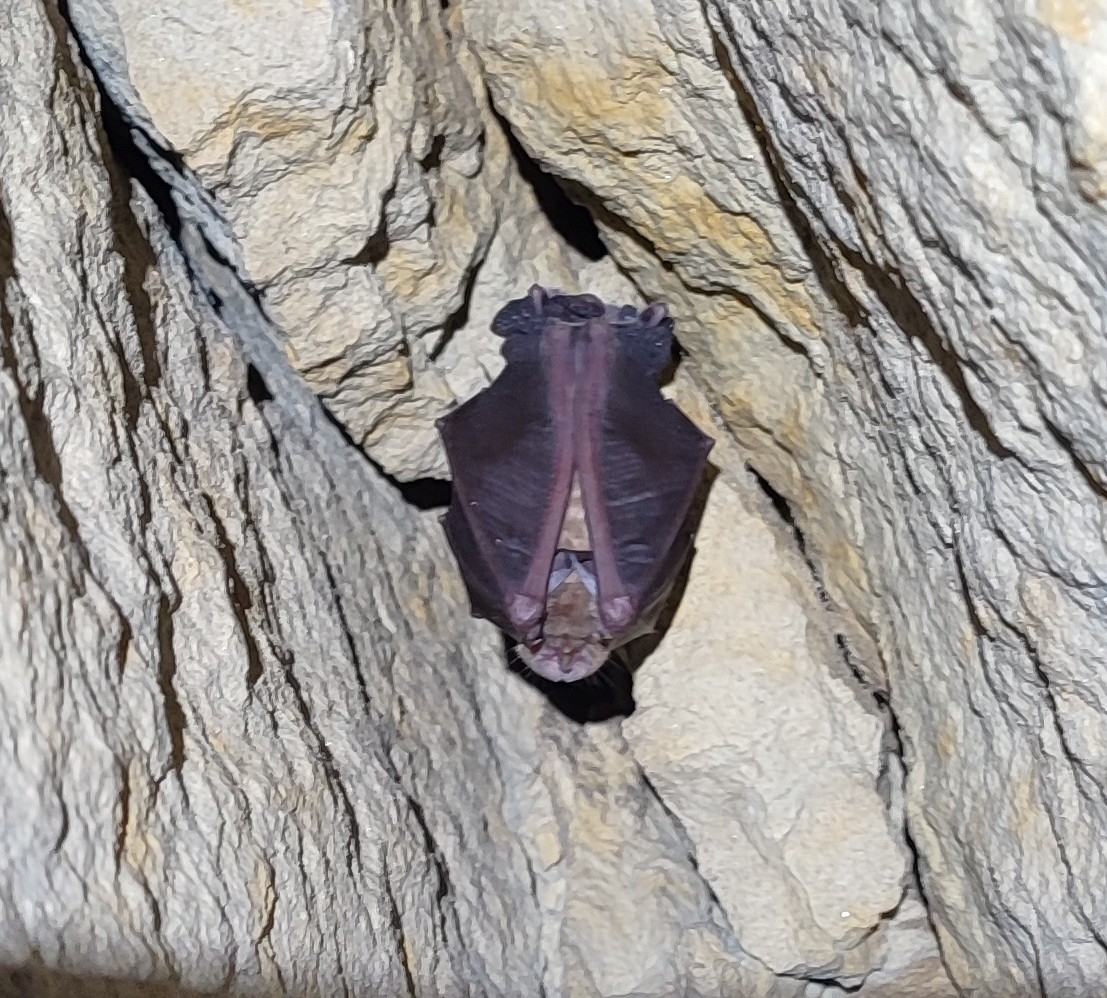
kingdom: Animalia
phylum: Chordata
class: Mammalia
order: Chiroptera
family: Rhinolophidae
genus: Rhinolophus
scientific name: Rhinolophus ferrumequinum
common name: Greater horseshoe bat
